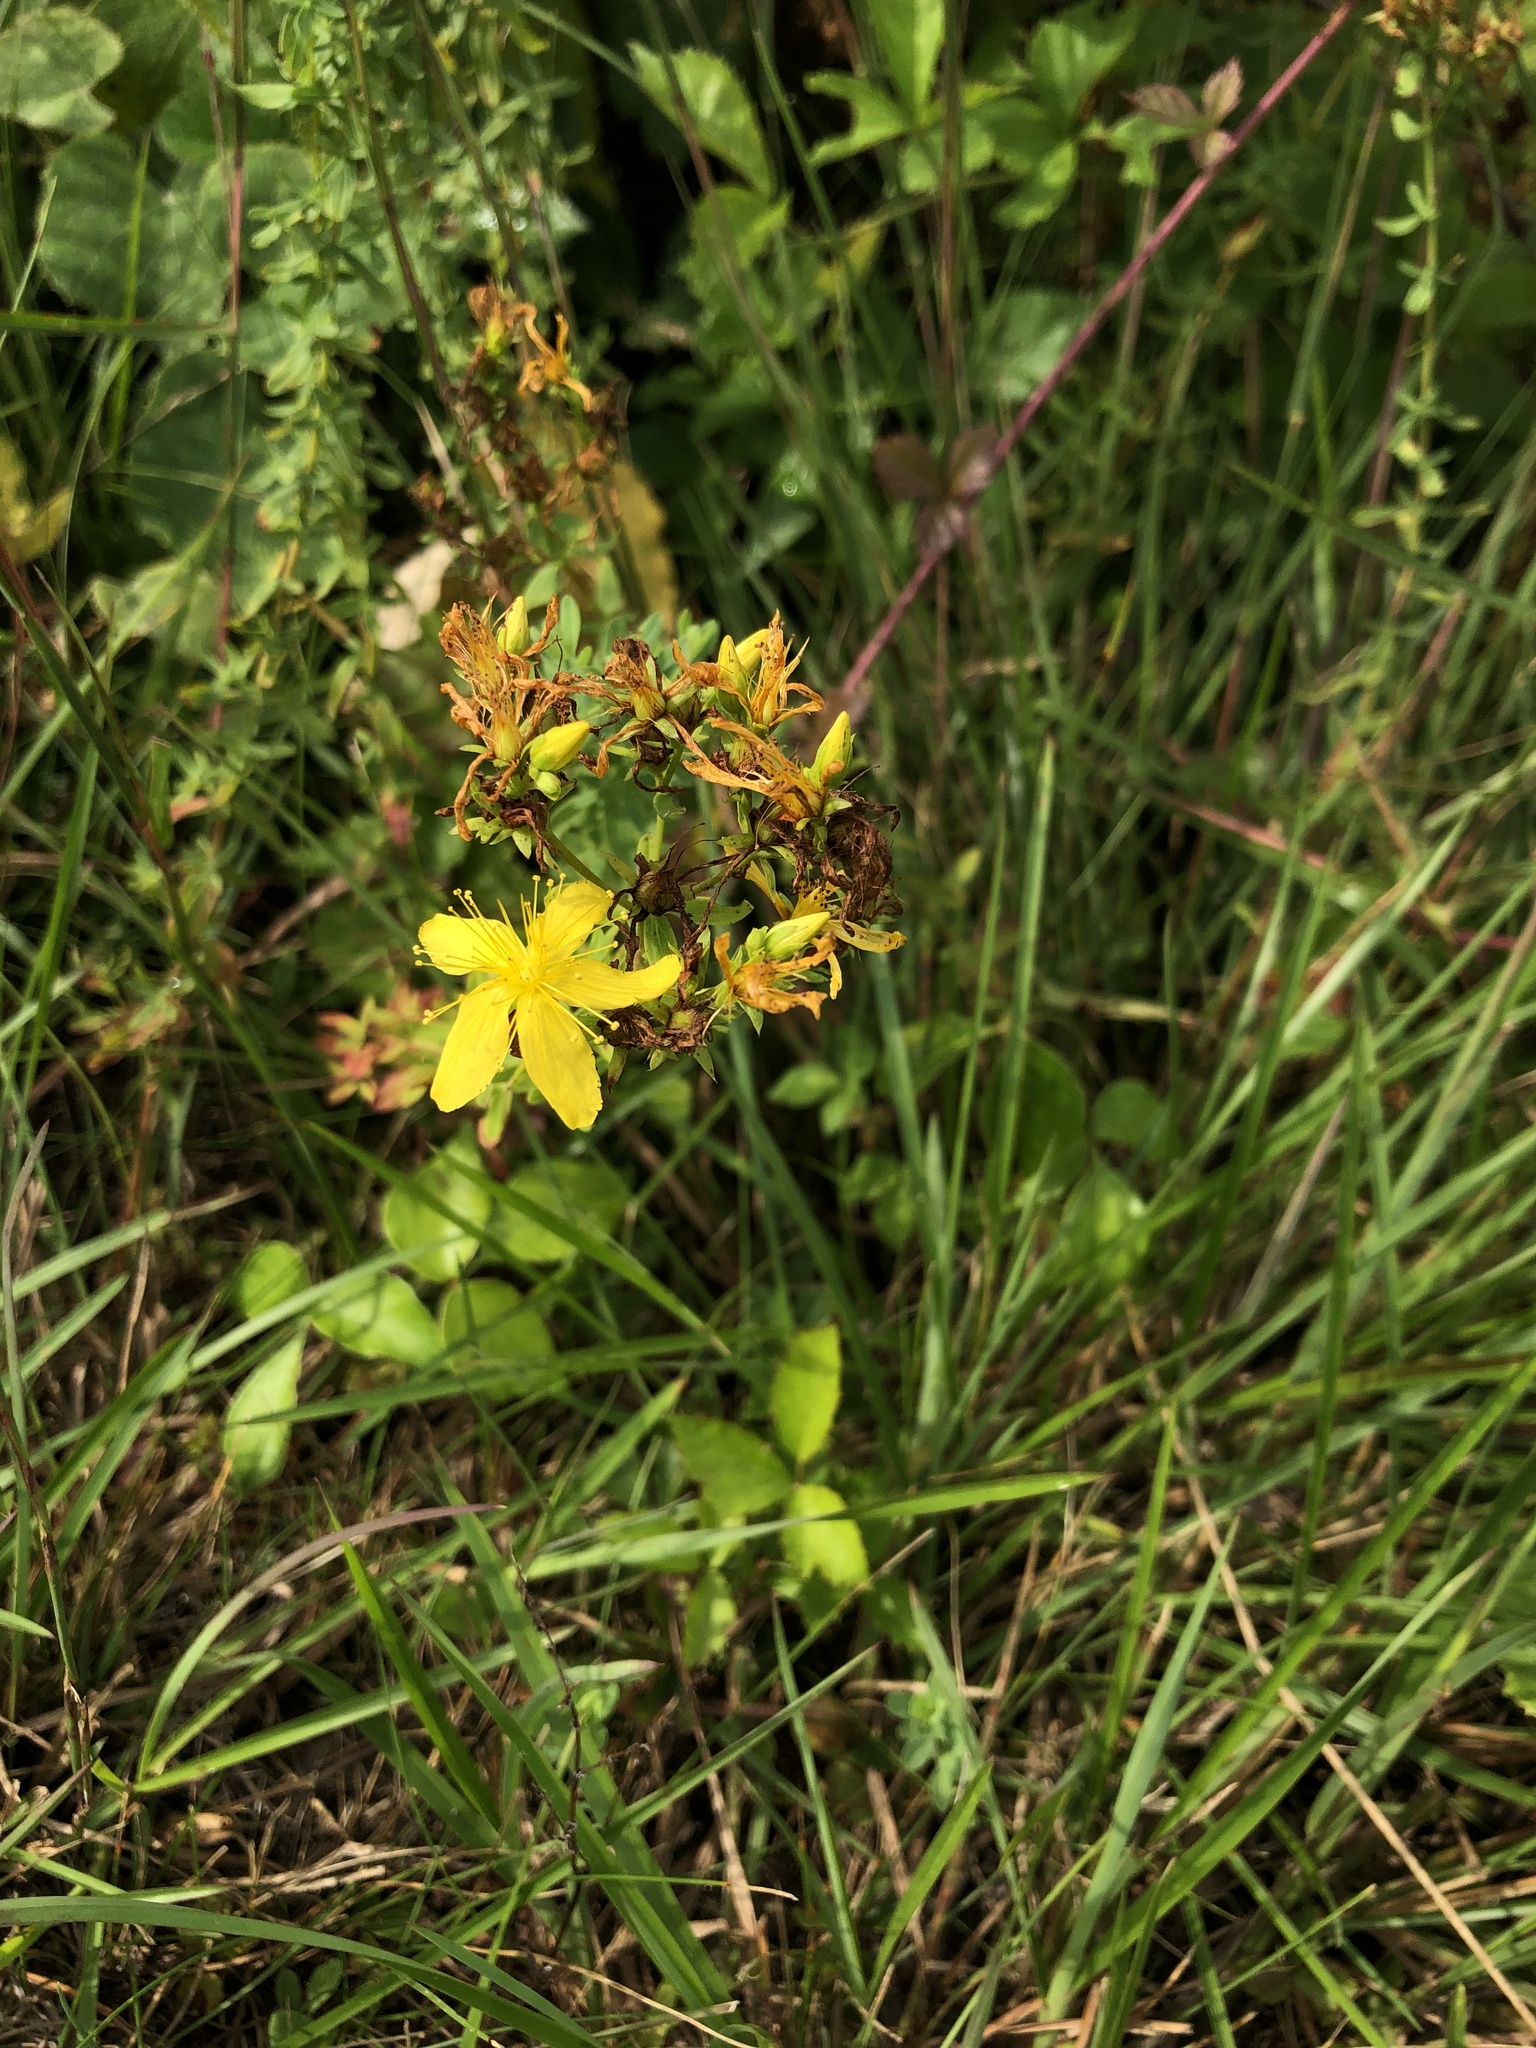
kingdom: Plantae
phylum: Tracheophyta
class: Magnoliopsida
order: Malpighiales
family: Hypericaceae
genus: Hypericum
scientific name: Hypericum perforatum
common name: Common st. johnswort
